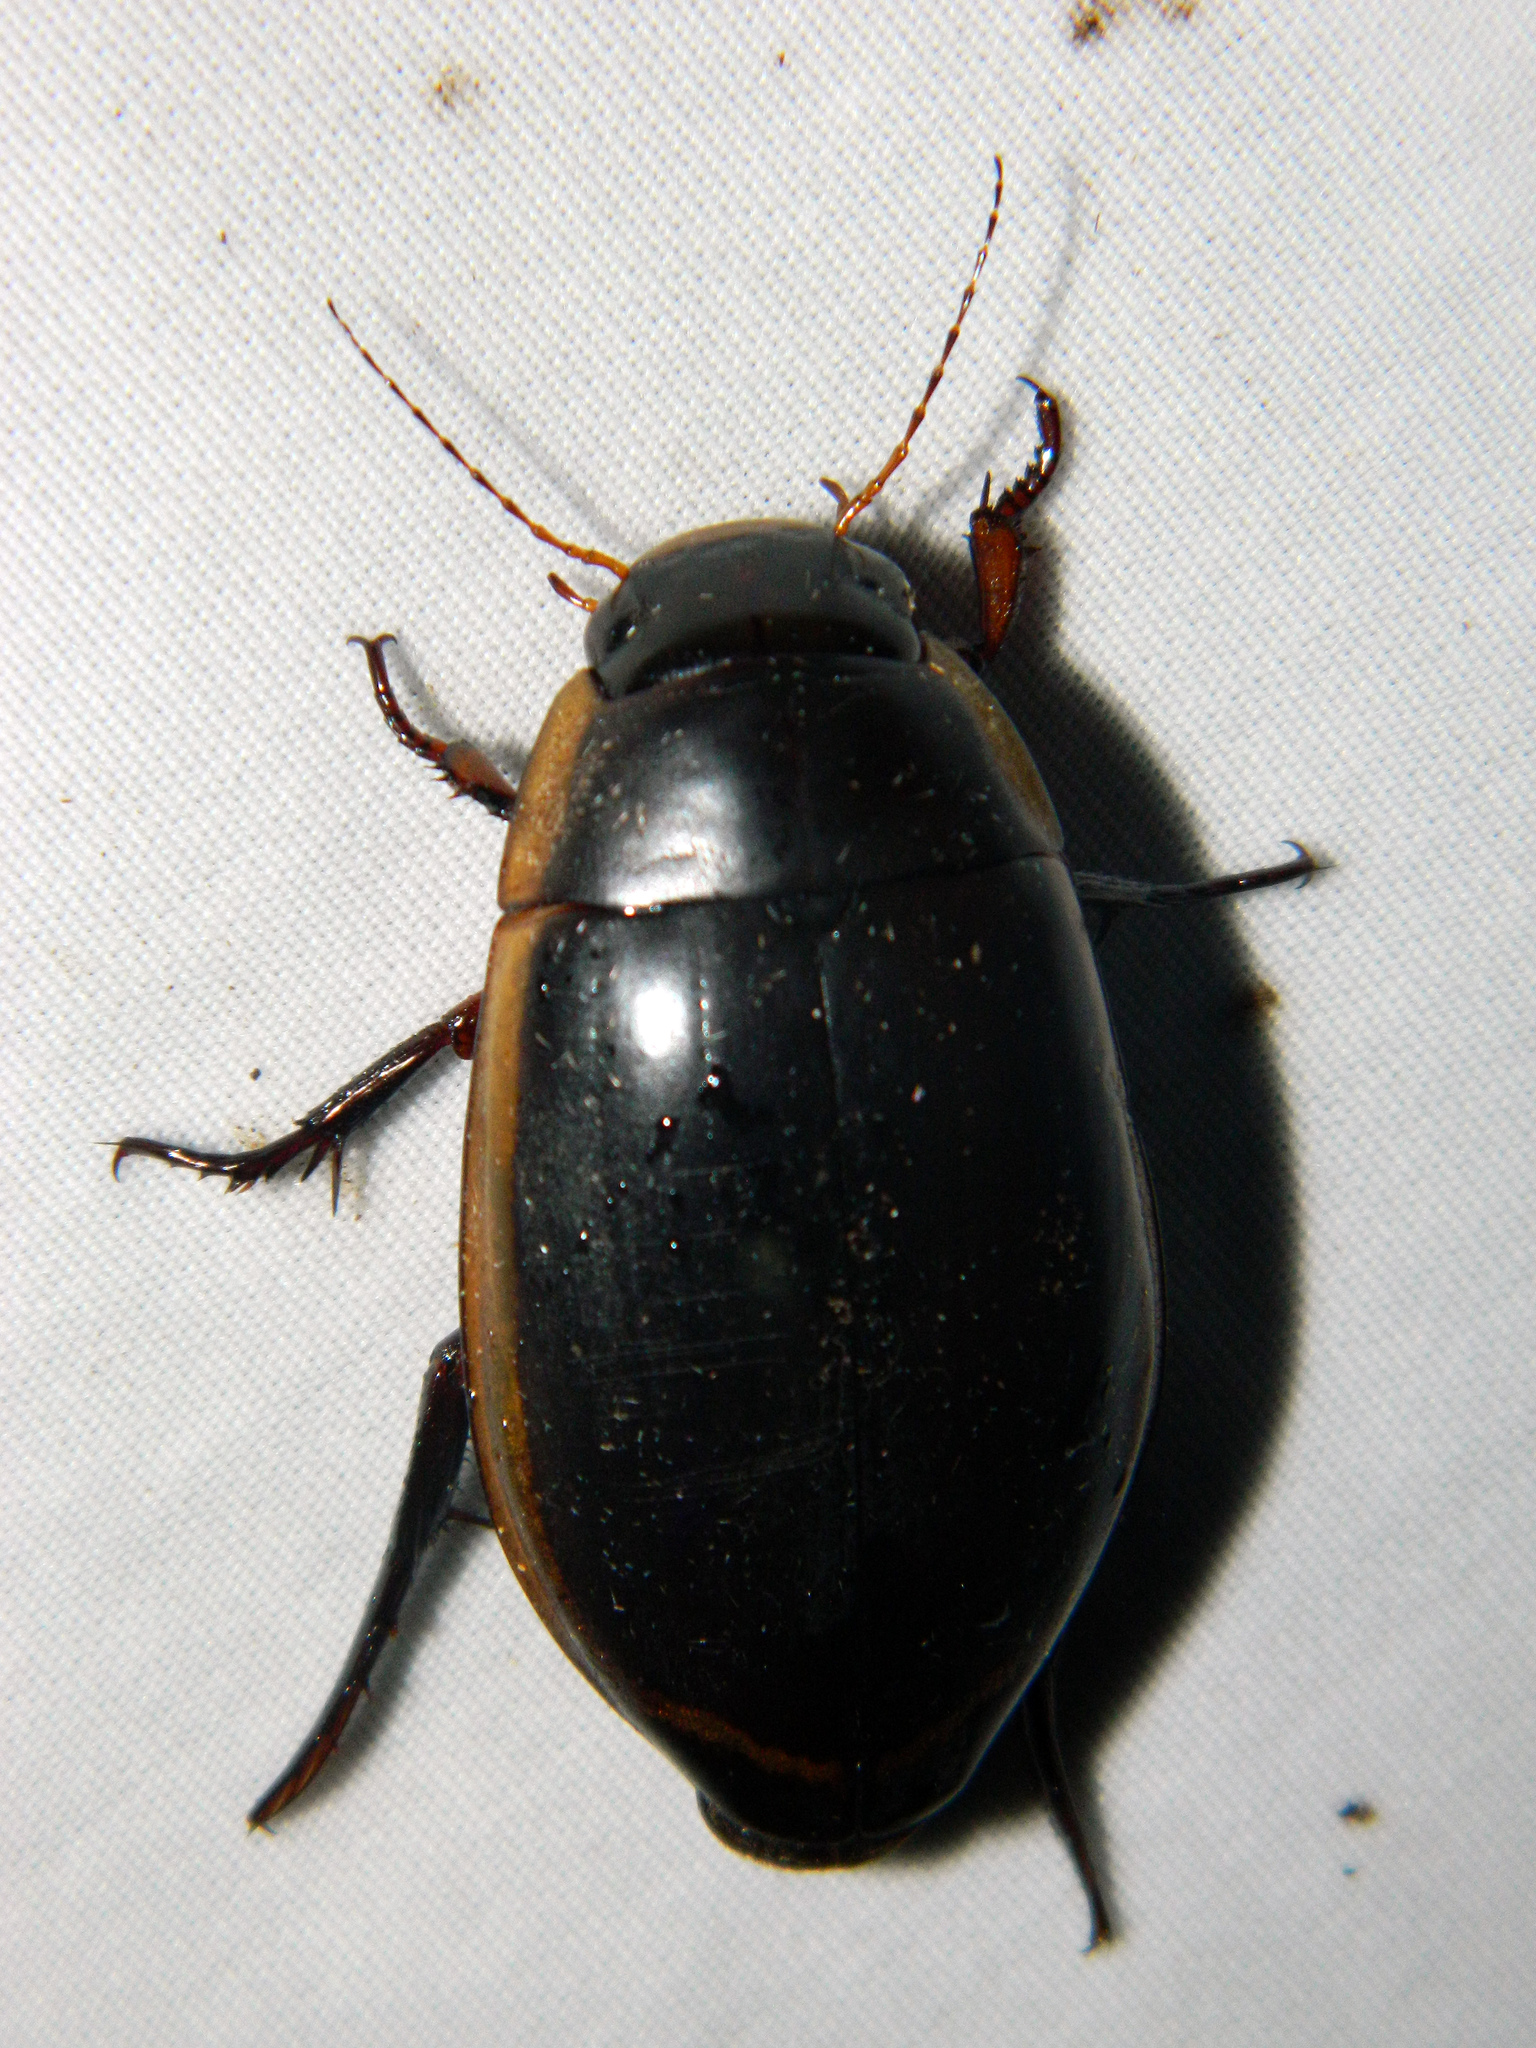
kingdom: Animalia
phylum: Arthropoda
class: Insecta
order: Coleoptera
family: Dytiscidae
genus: Dytiscus
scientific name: Dytiscus verticalis
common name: Vertical diving beetle
